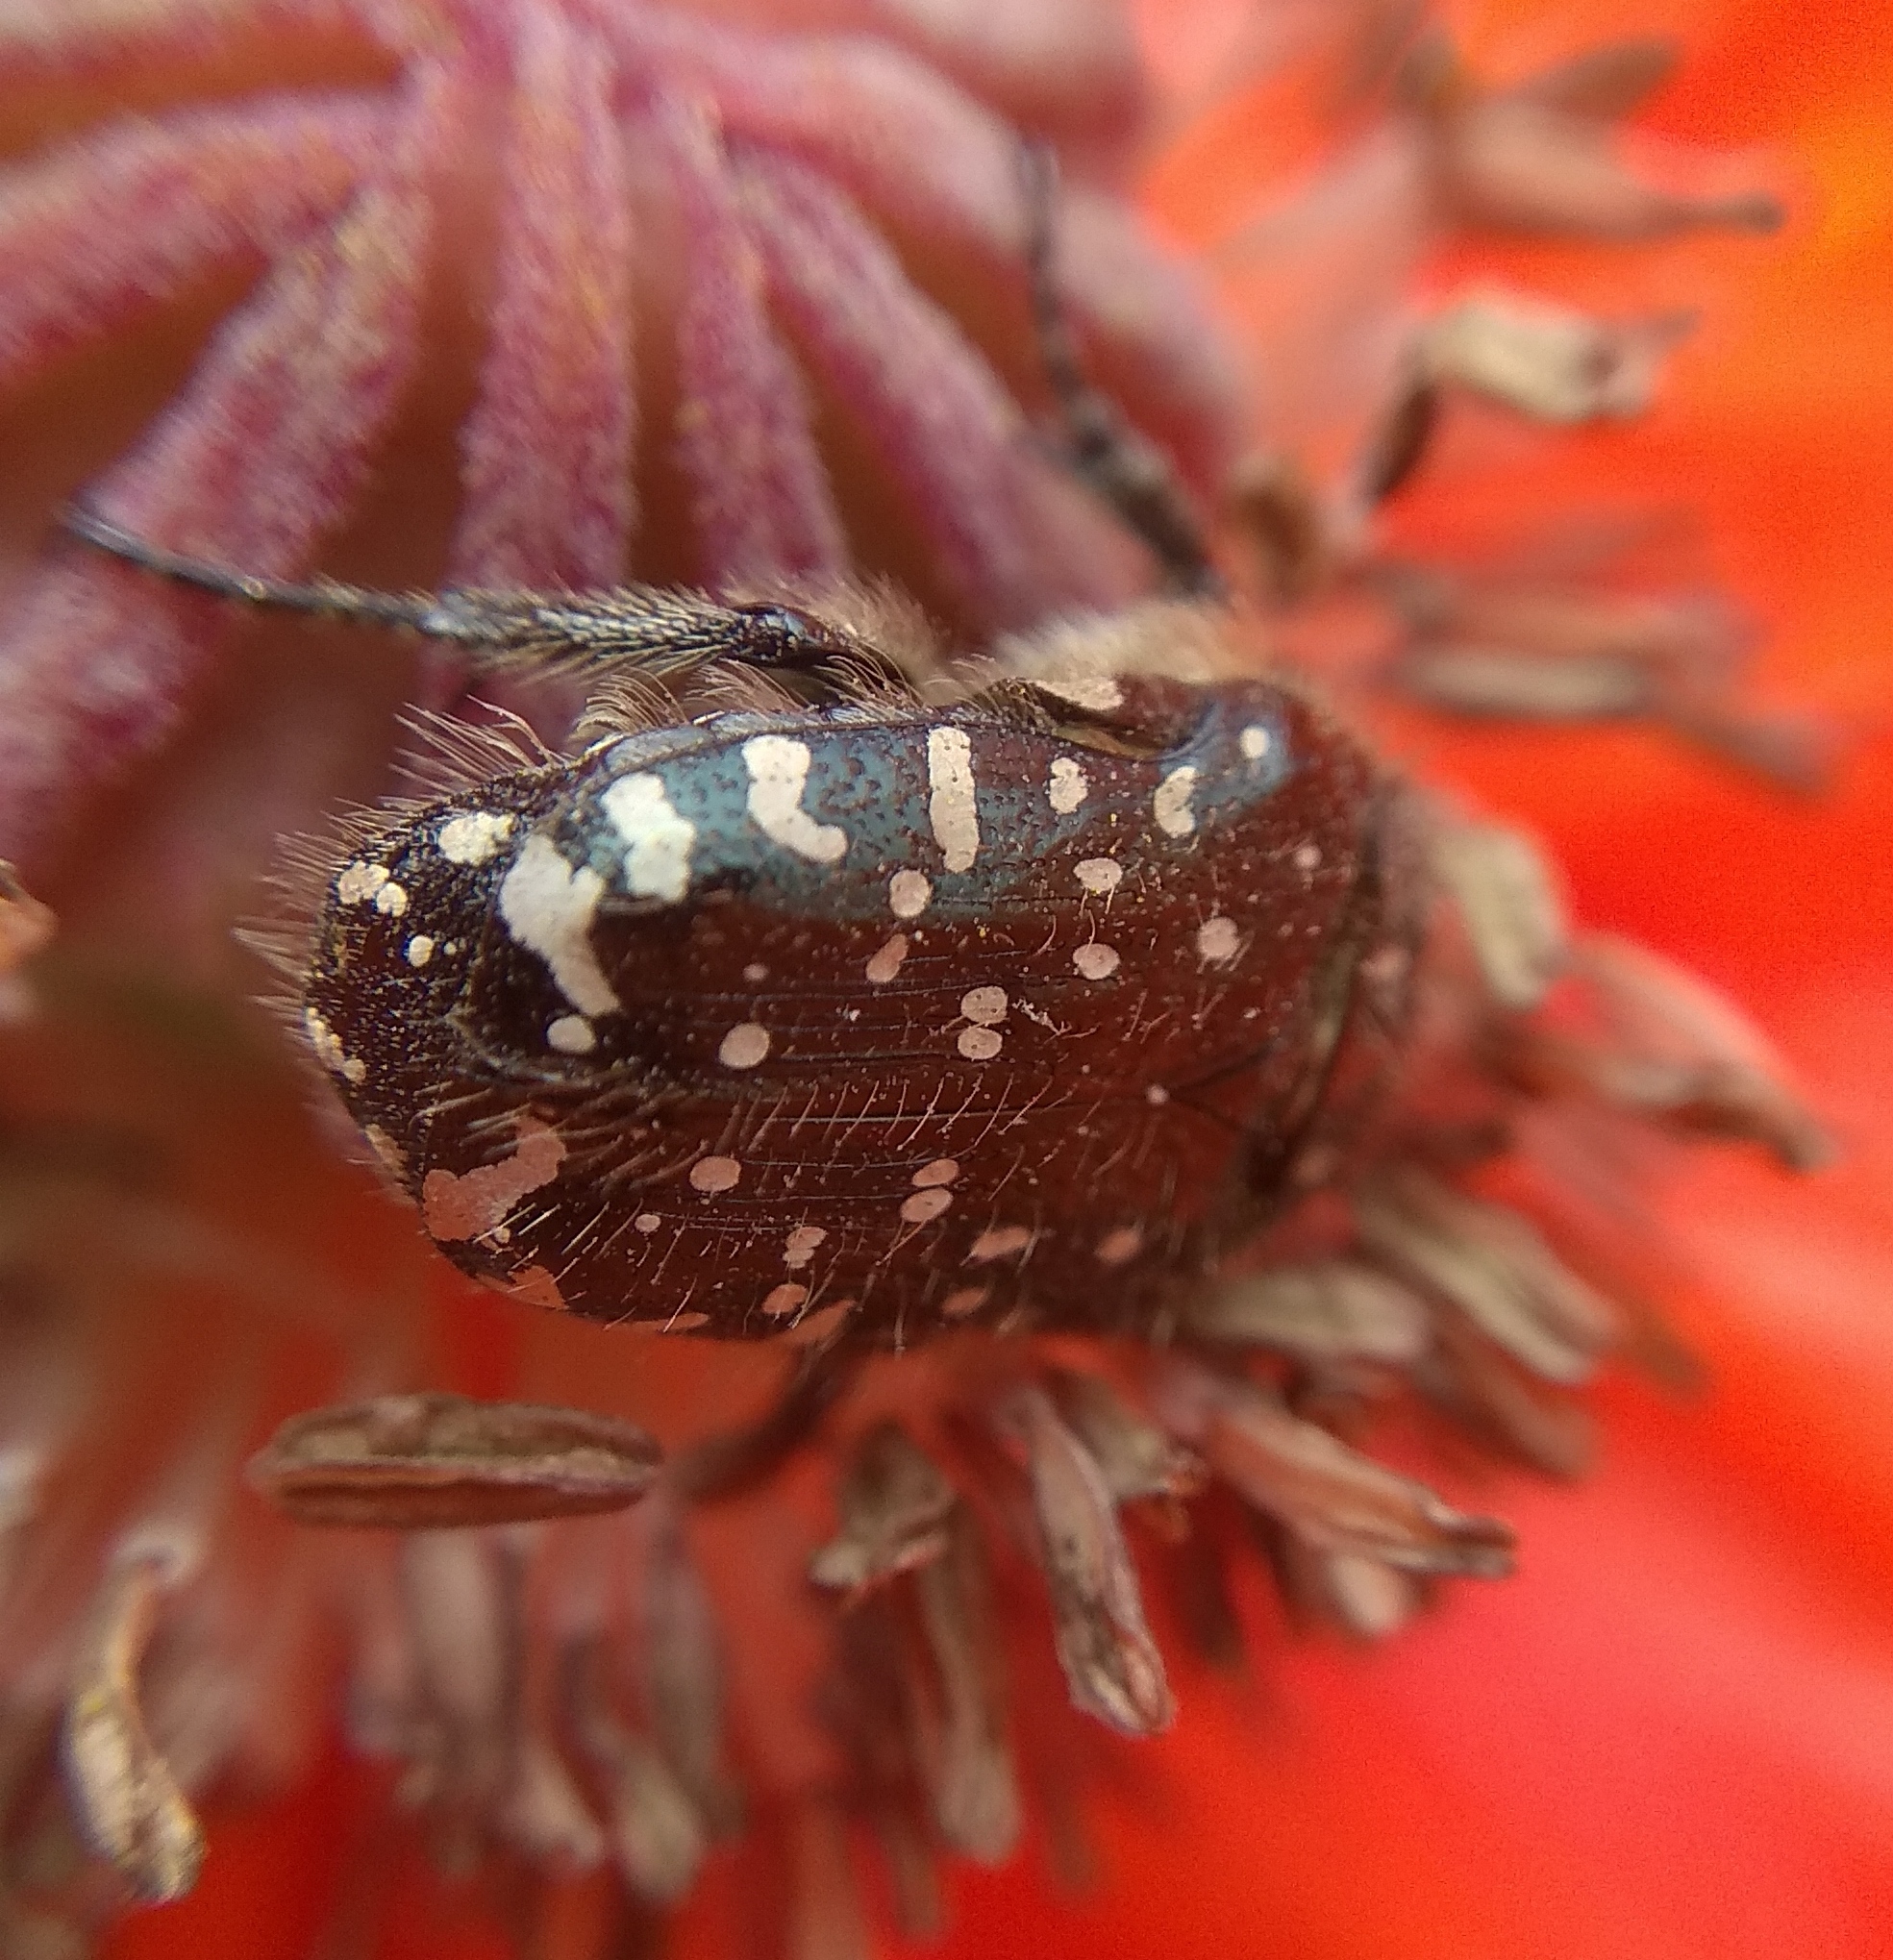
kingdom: Animalia
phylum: Arthropoda
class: Insecta
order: Coleoptera
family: Scarabaeidae
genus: Oxythyrea
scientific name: Oxythyrea funesta
